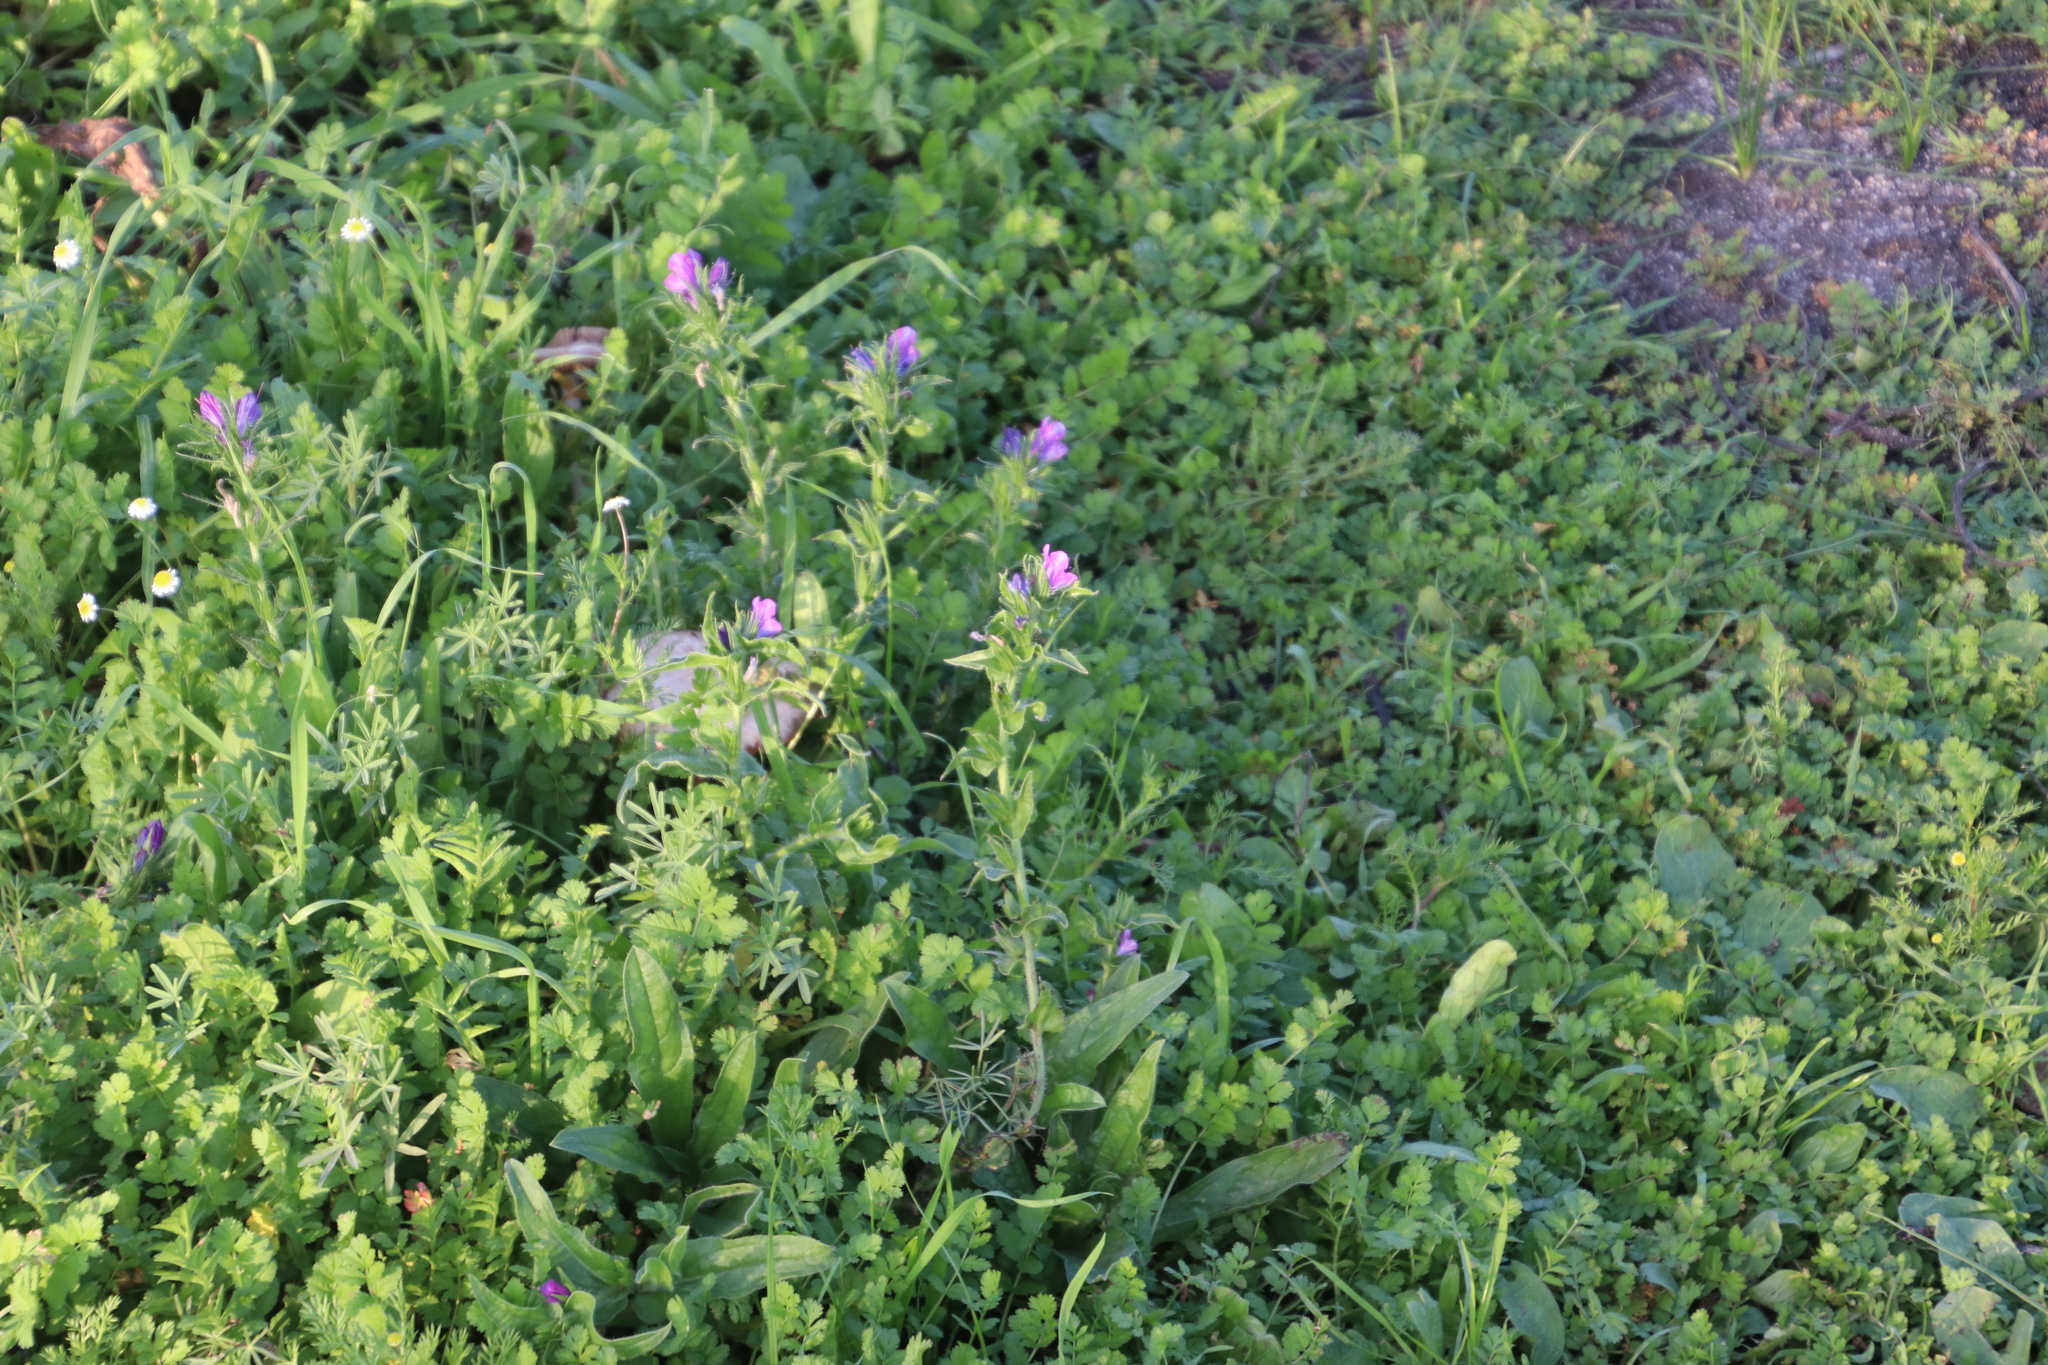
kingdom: Plantae
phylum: Tracheophyta
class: Magnoliopsida
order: Boraginales
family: Boraginaceae
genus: Echium
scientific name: Echium plantagineum
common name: Purple viper's-bugloss
